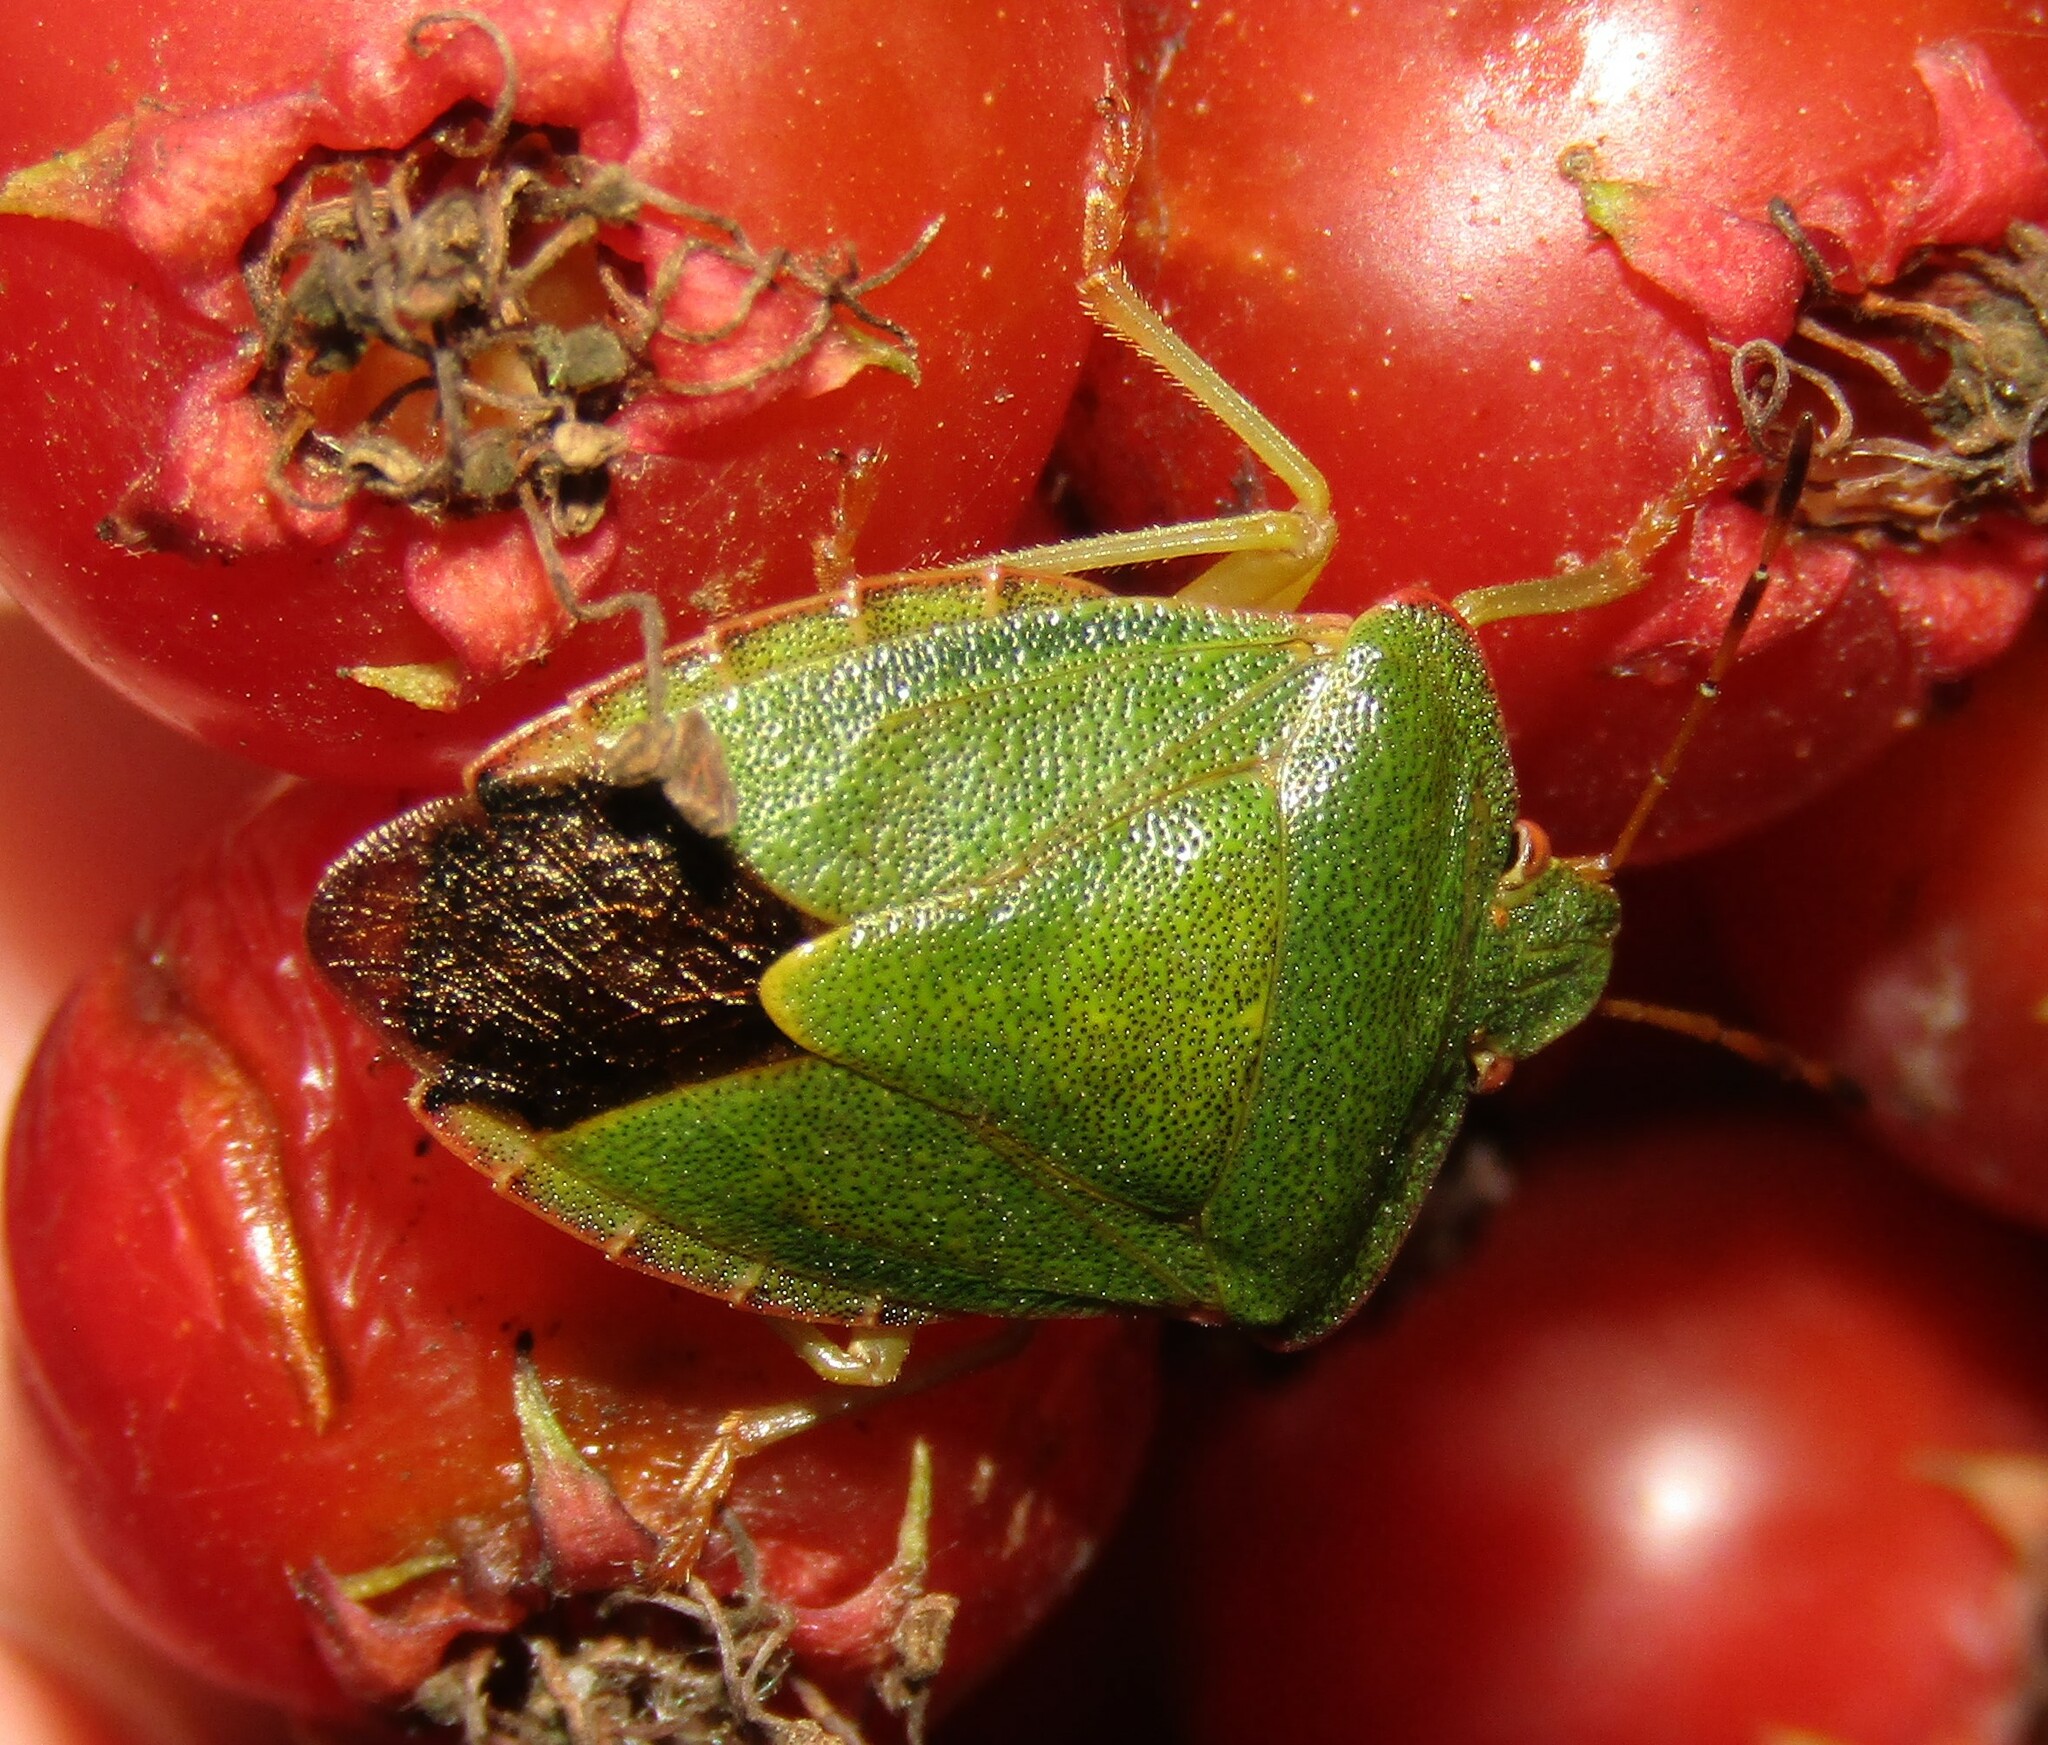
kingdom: Animalia
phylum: Arthropoda
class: Insecta
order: Hemiptera
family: Pentatomidae
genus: Palomena
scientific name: Palomena prasina
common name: Green shieldbug
